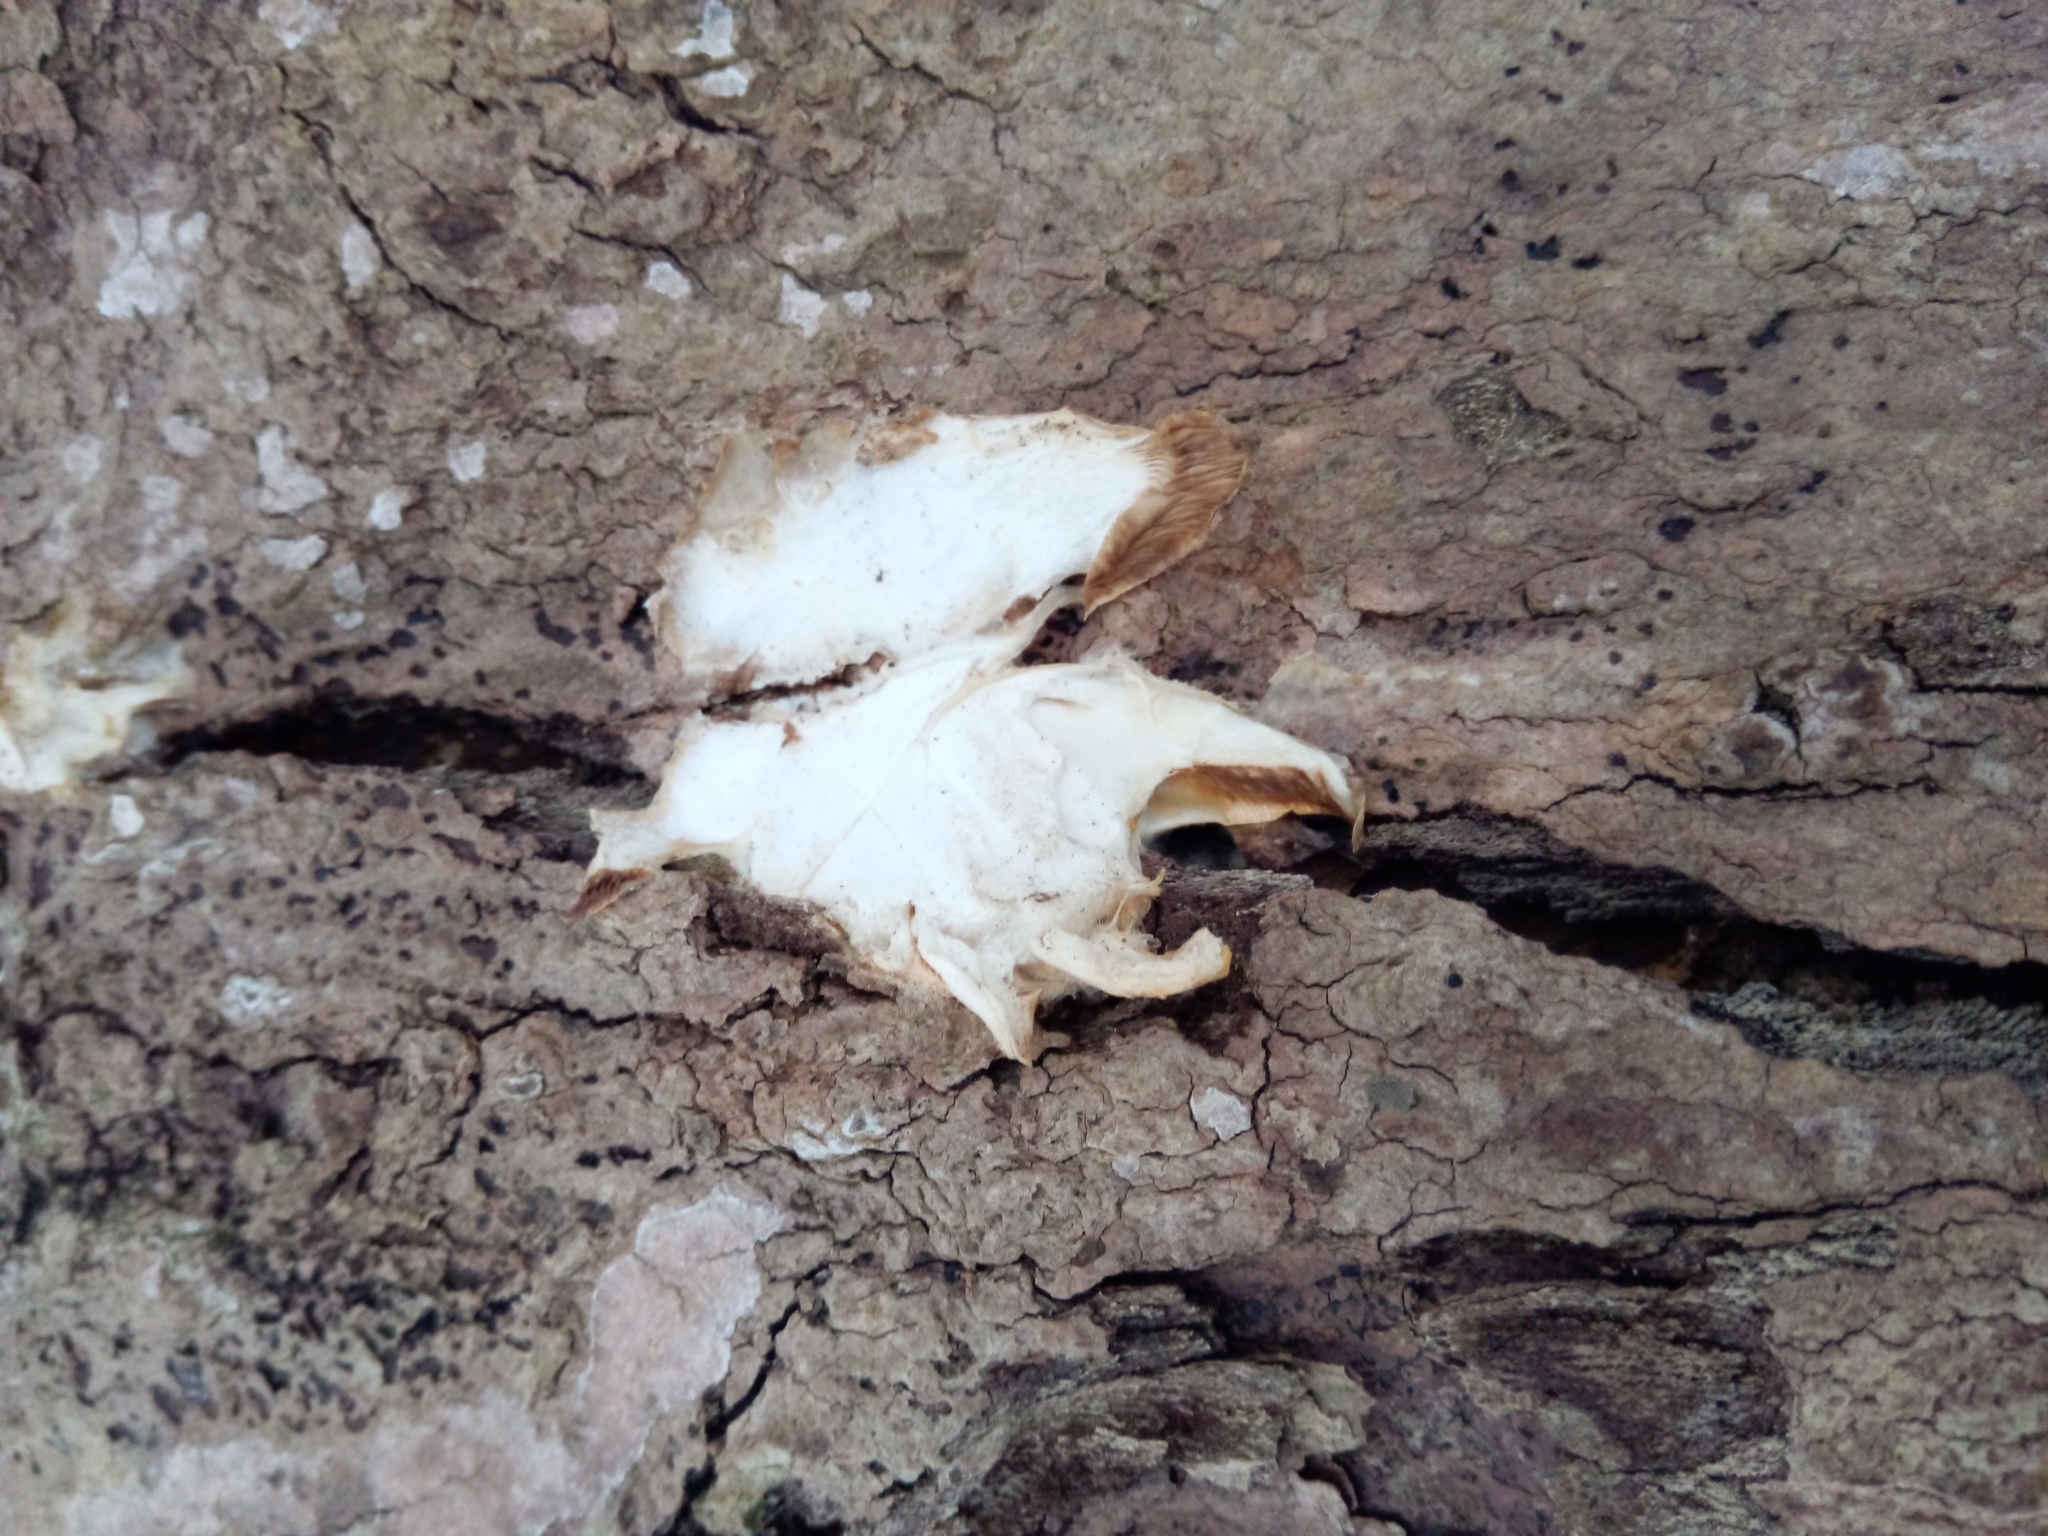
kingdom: Fungi
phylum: Basidiomycota
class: Agaricomycetes
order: Agaricales
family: Sarcomyxaceae
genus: Sarcomyxa
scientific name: Sarcomyxa serotina
